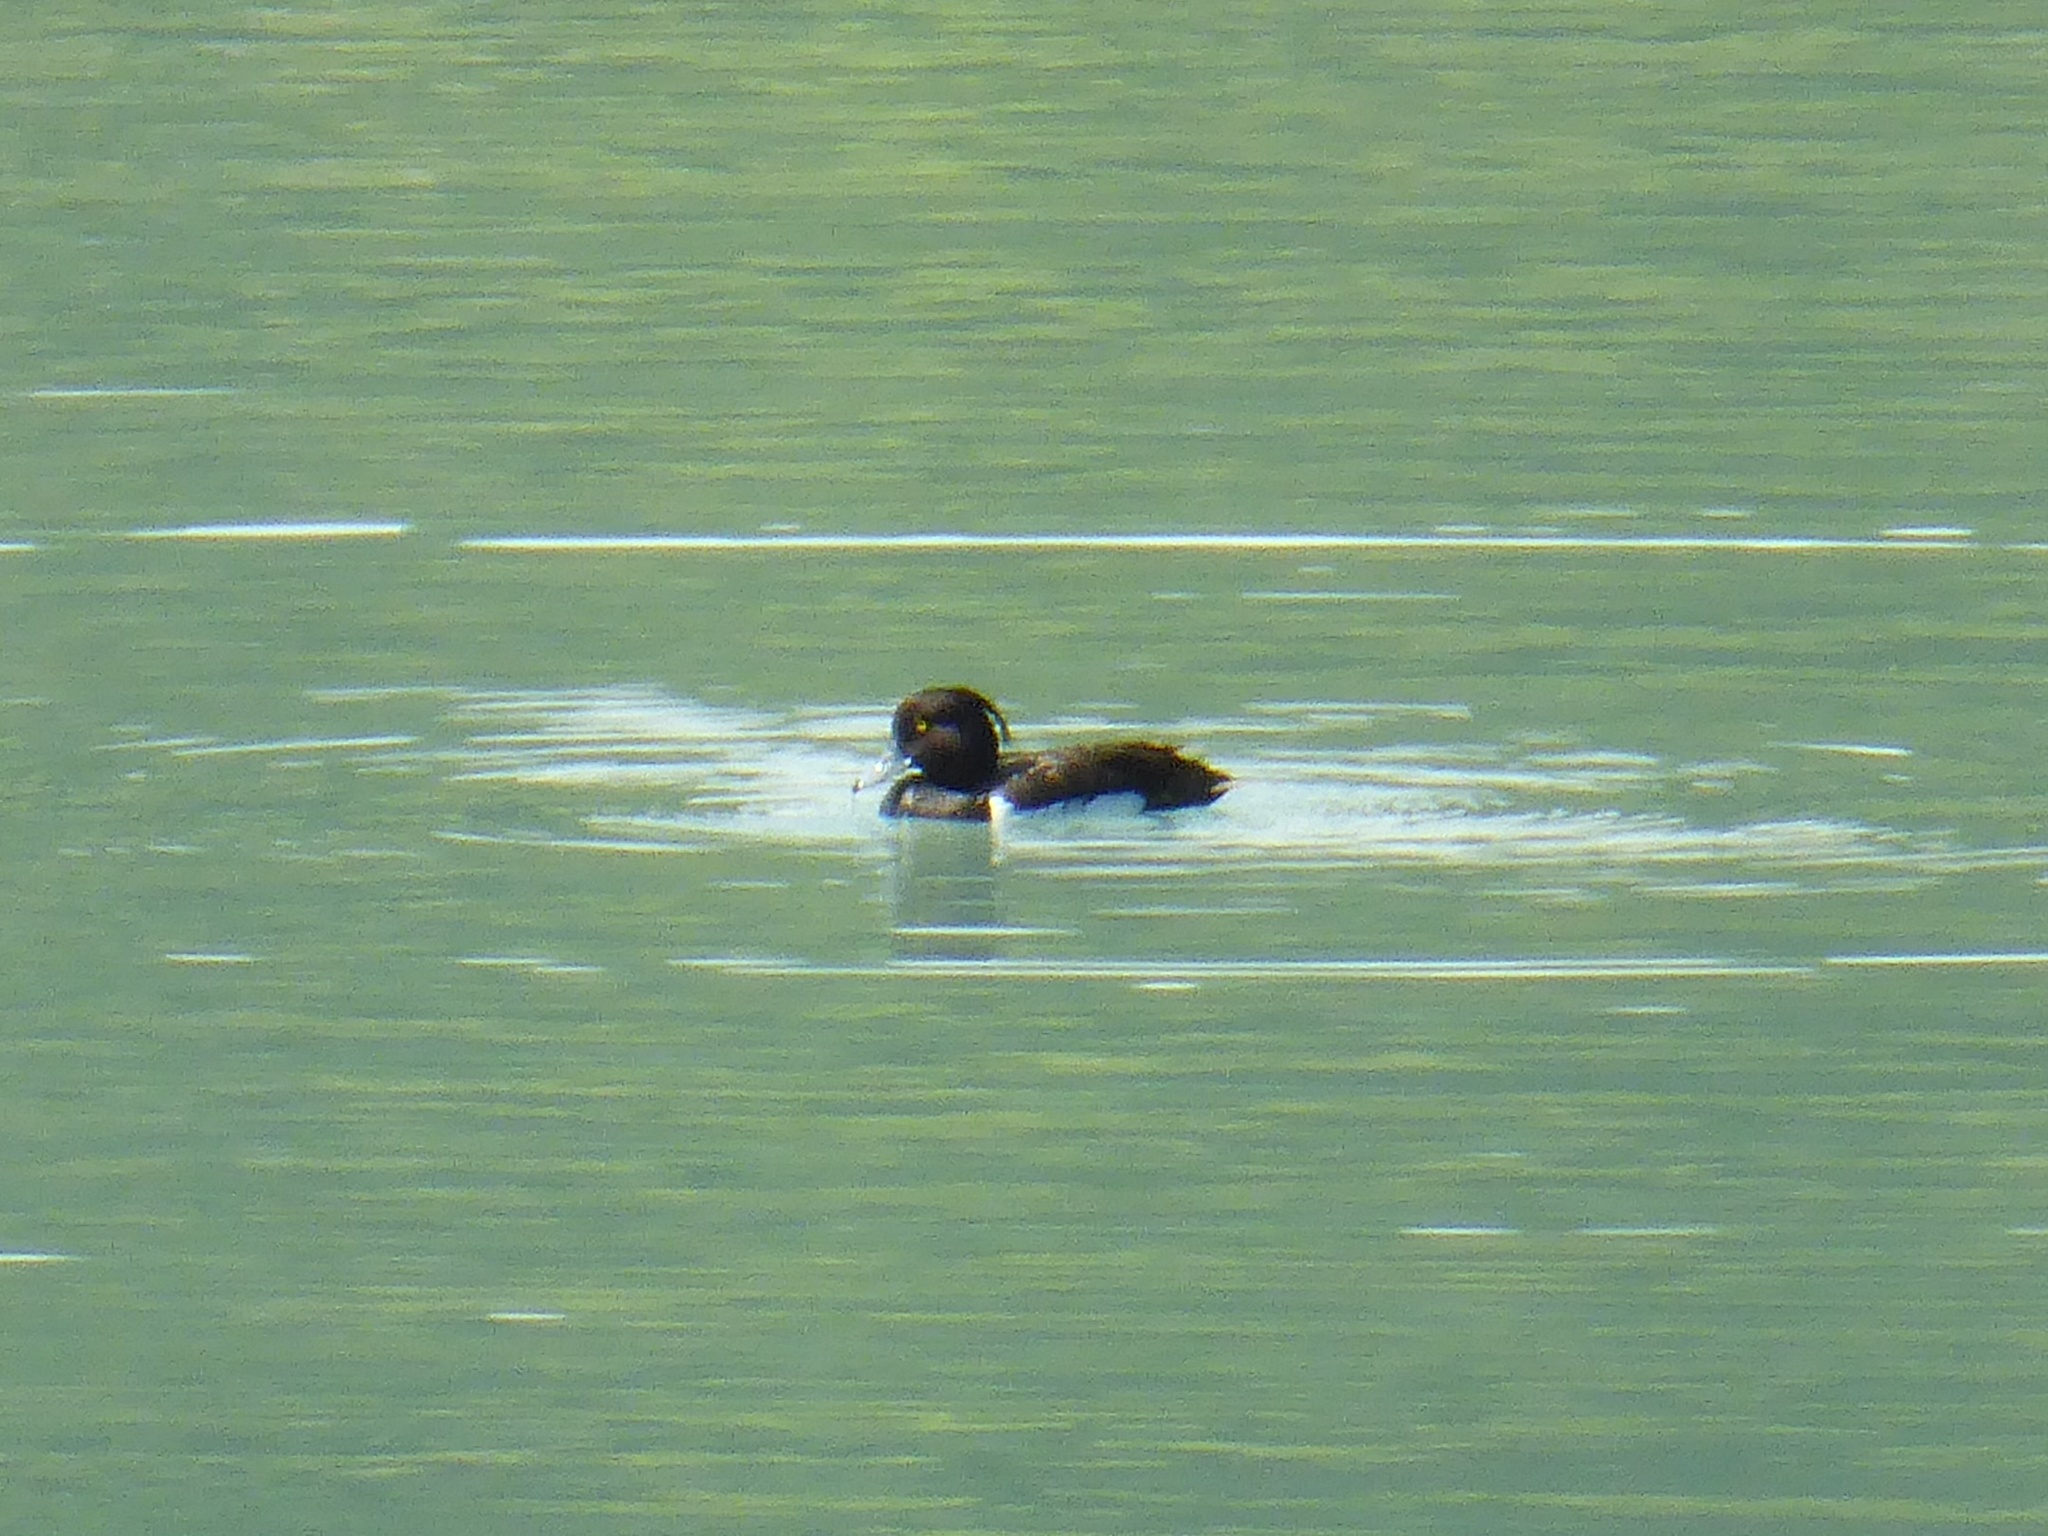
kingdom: Animalia
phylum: Chordata
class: Aves
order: Anseriformes
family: Anatidae
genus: Aythya
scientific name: Aythya fuligula
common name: Tufted duck
